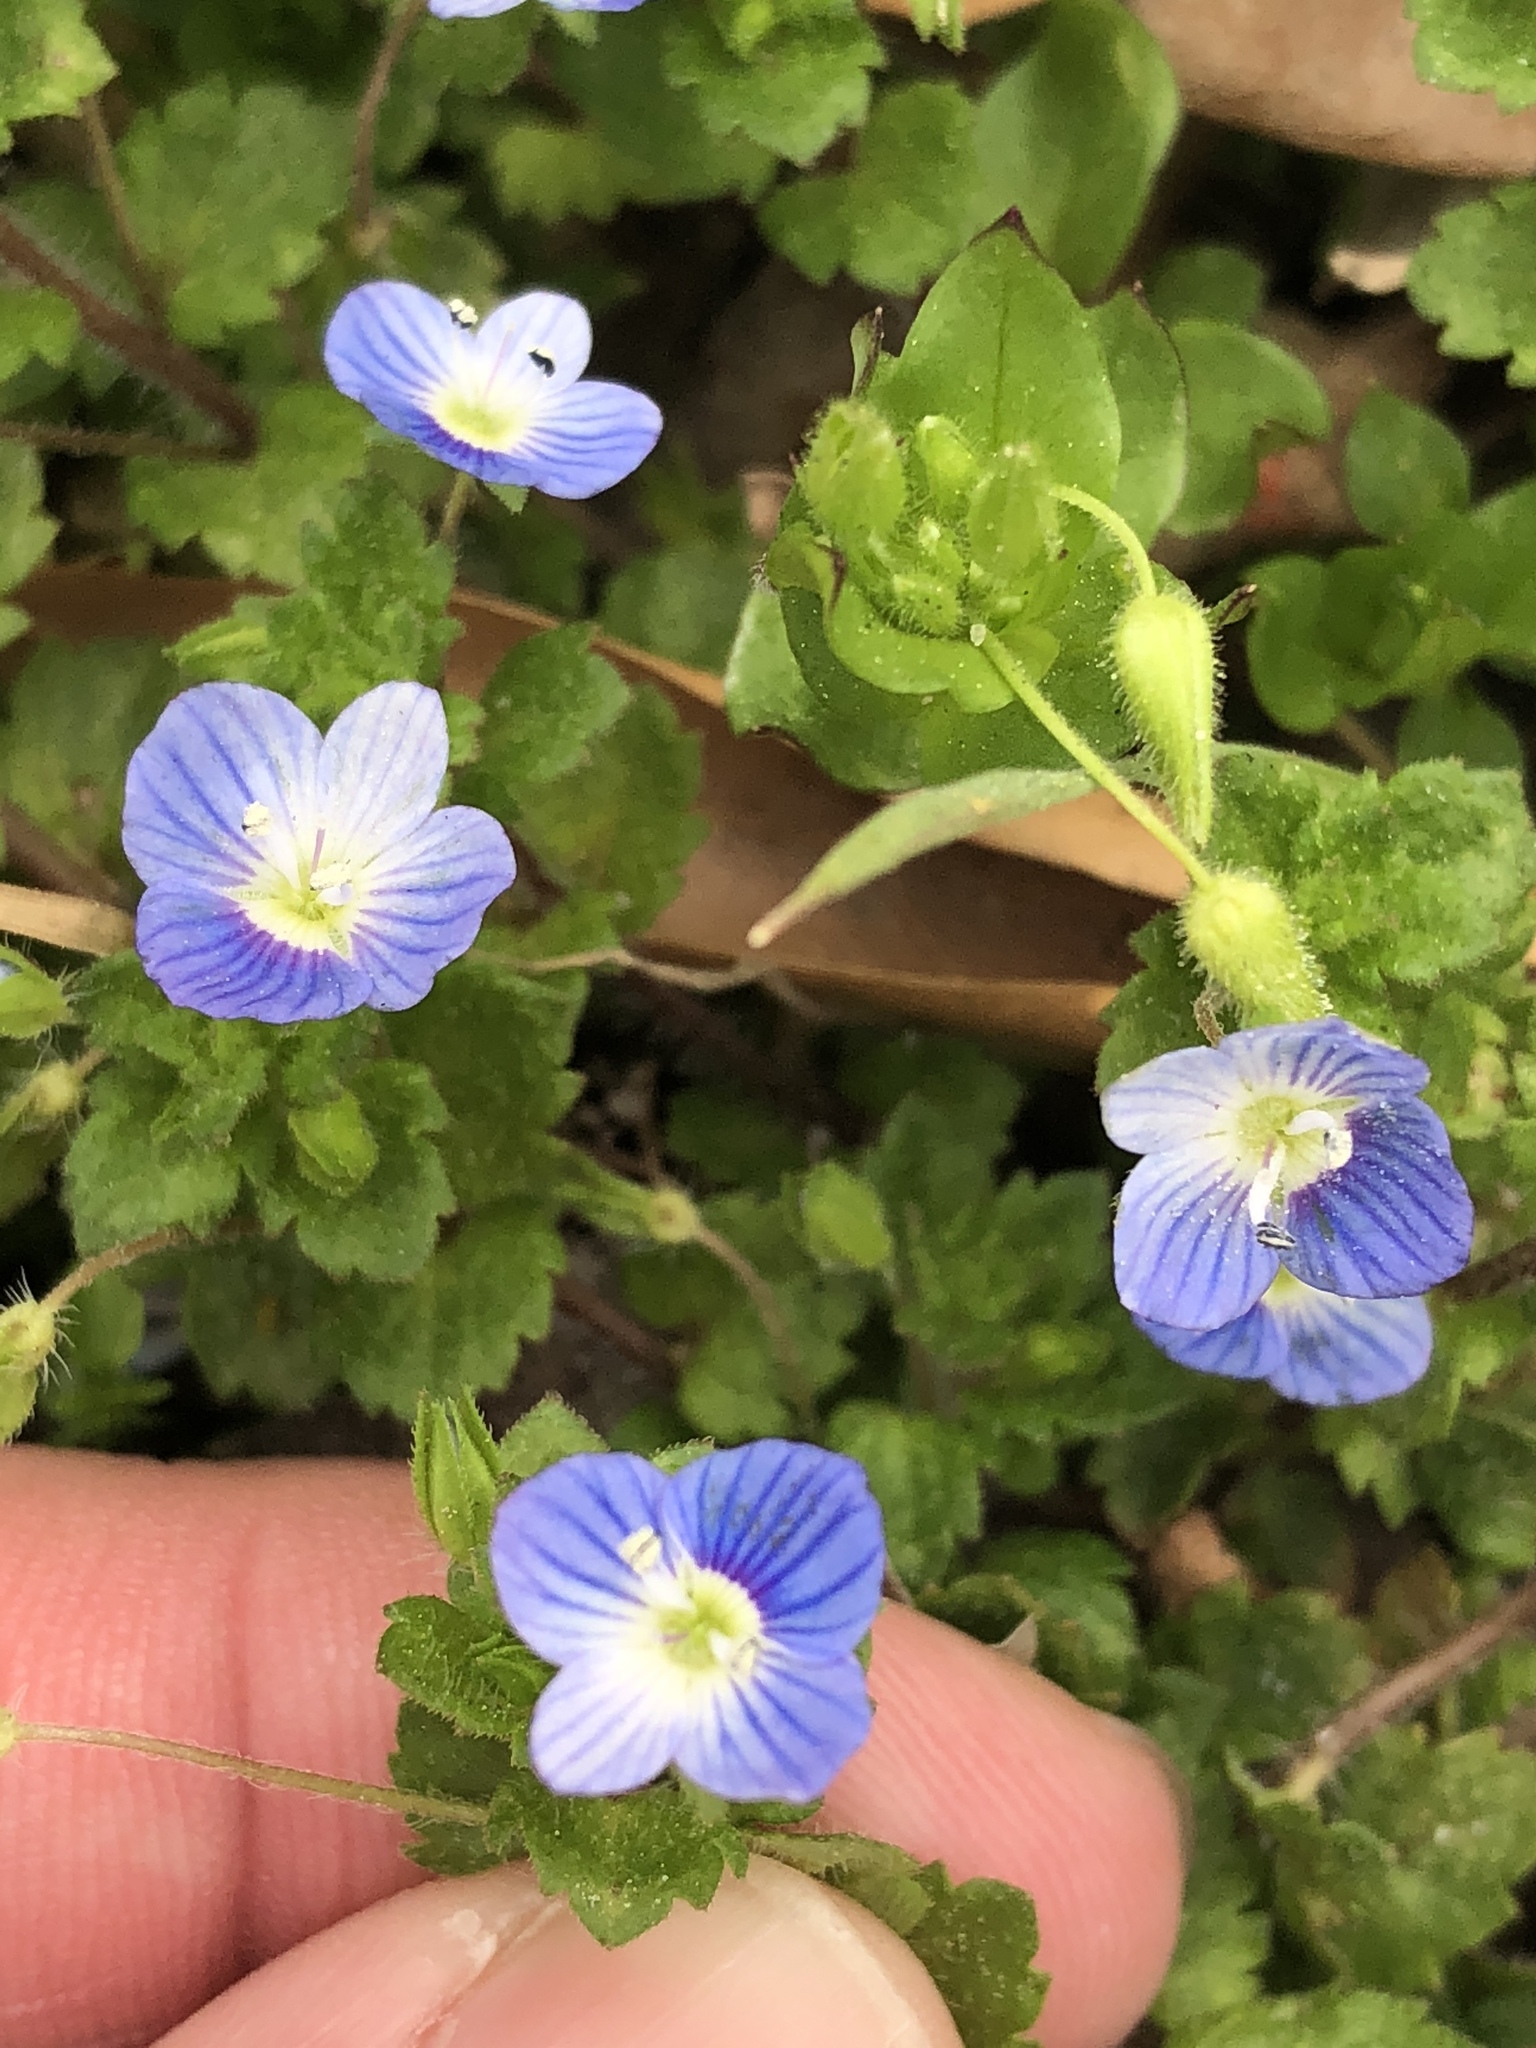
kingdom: Plantae
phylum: Tracheophyta
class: Magnoliopsida
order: Lamiales
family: Plantaginaceae
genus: Veronica
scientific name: Veronica persica
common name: Common field-speedwell
